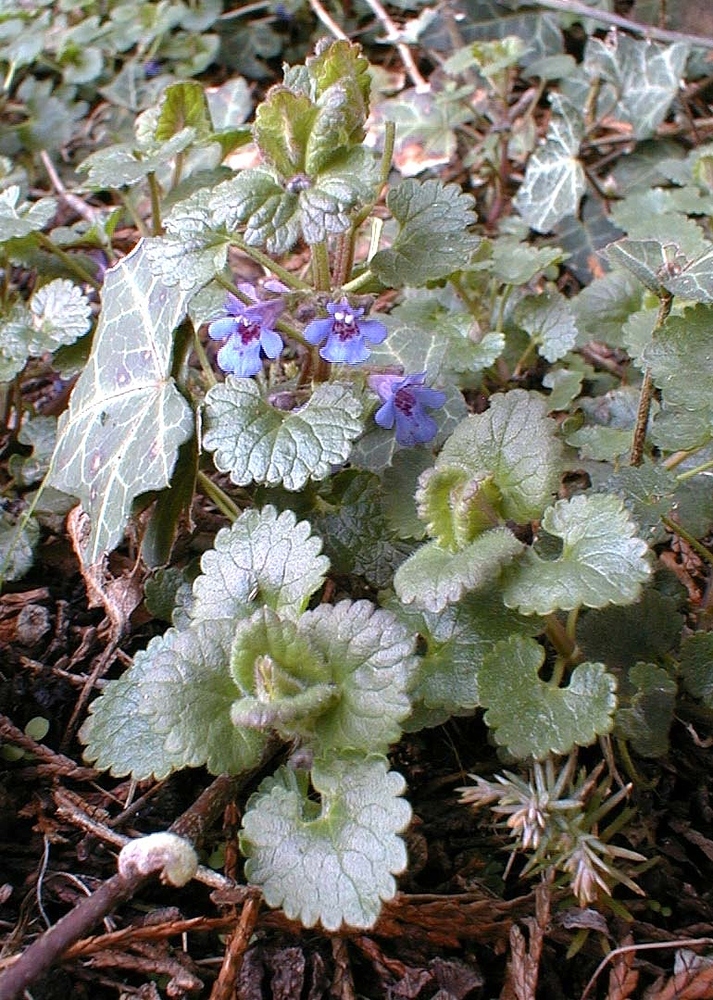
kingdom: Plantae
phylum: Tracheophyta
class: Magnoliopsida
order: Lamiales
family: Lamiaceae
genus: Glechoma
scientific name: Glechoma hederacea
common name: Ground ivy
